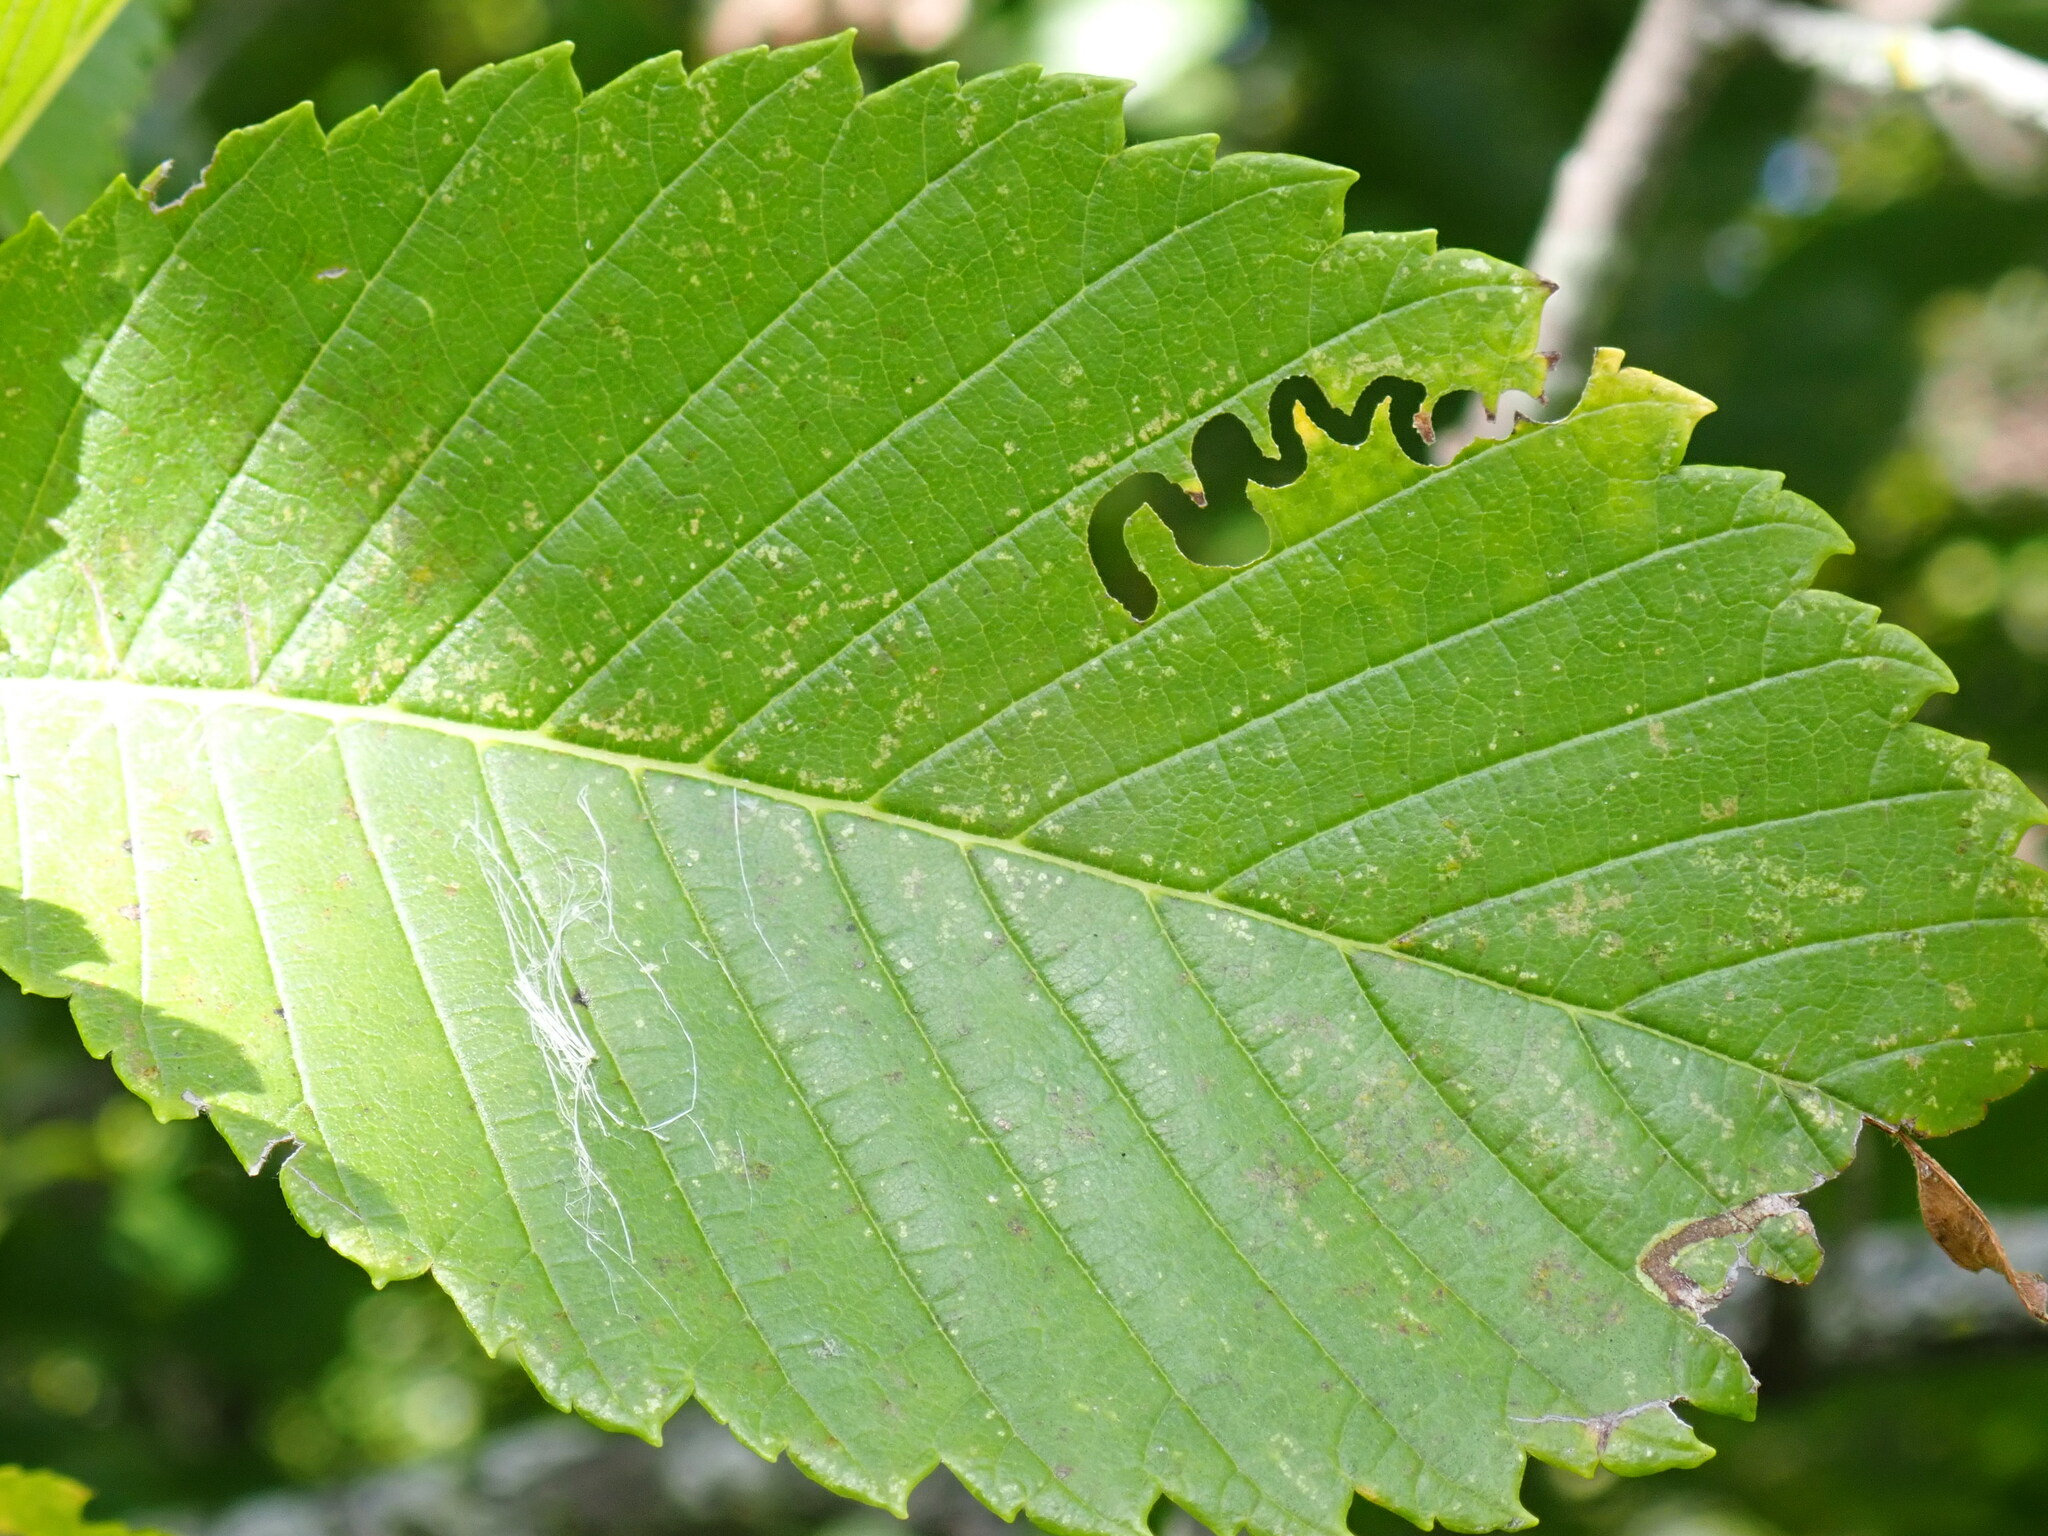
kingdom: Animalia
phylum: Arthropoda
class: Insecta
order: Hymenoptera
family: Argidae
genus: Aproceros
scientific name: Aproceros leucopoda
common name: Zig-zag elm sawfly
